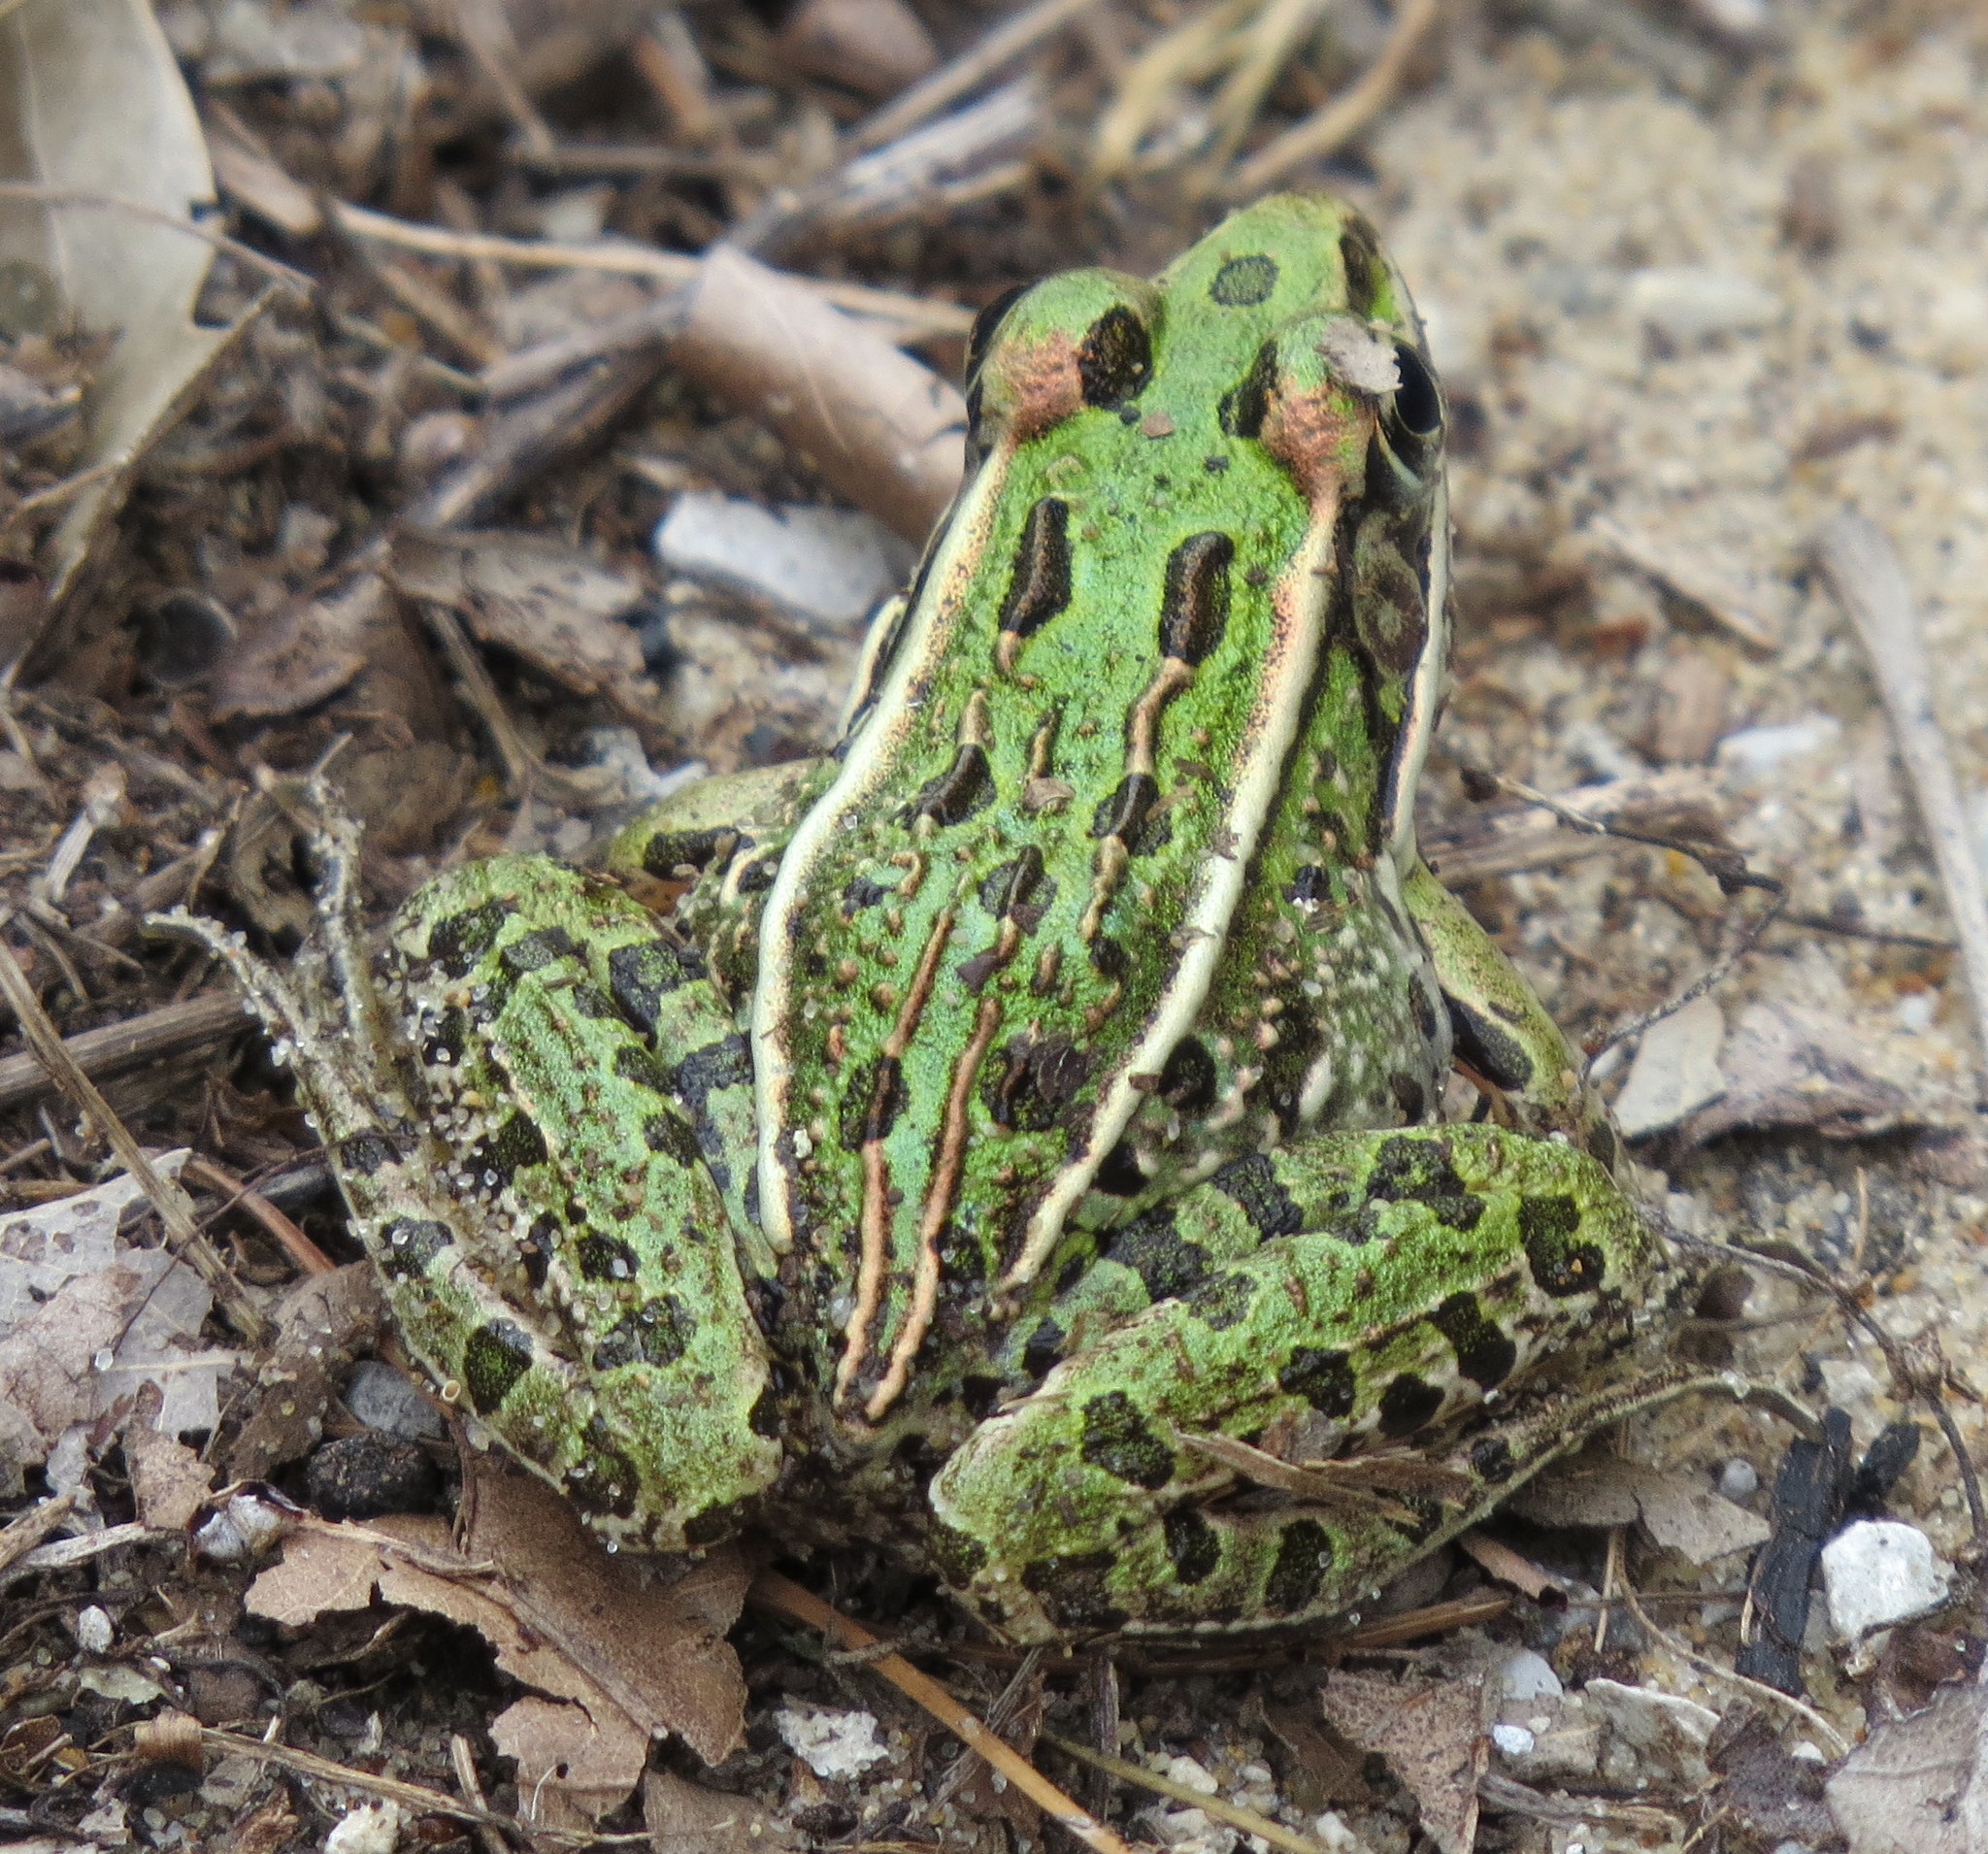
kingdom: Animalia
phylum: Chordata
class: Amphibia
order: Anura
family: Ranidae
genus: Lithobates
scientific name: Lithobates pipiens
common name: Northern leopard frog
